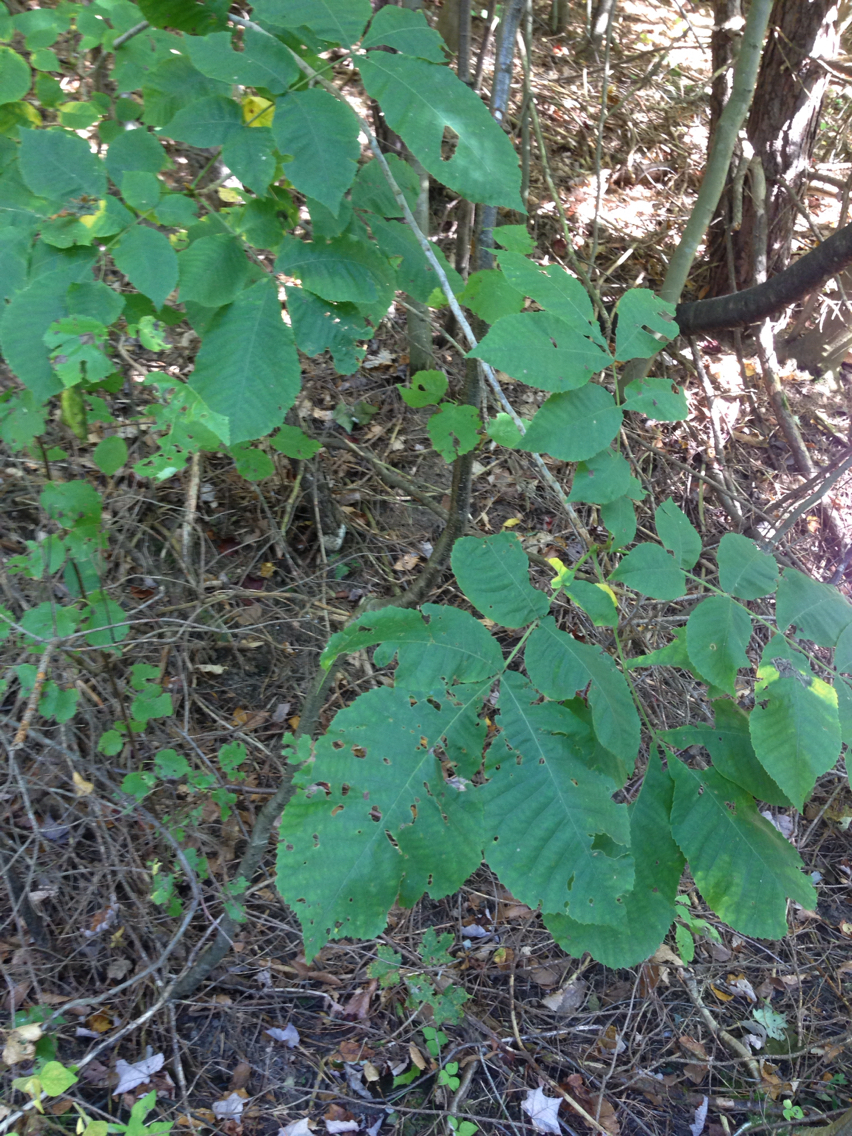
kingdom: Plantae
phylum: Tracheophyta
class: Magnoliopsida
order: Fagales
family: Juglandaceae
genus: Carya
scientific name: Carya cordiformis
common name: Bitternut hickory
